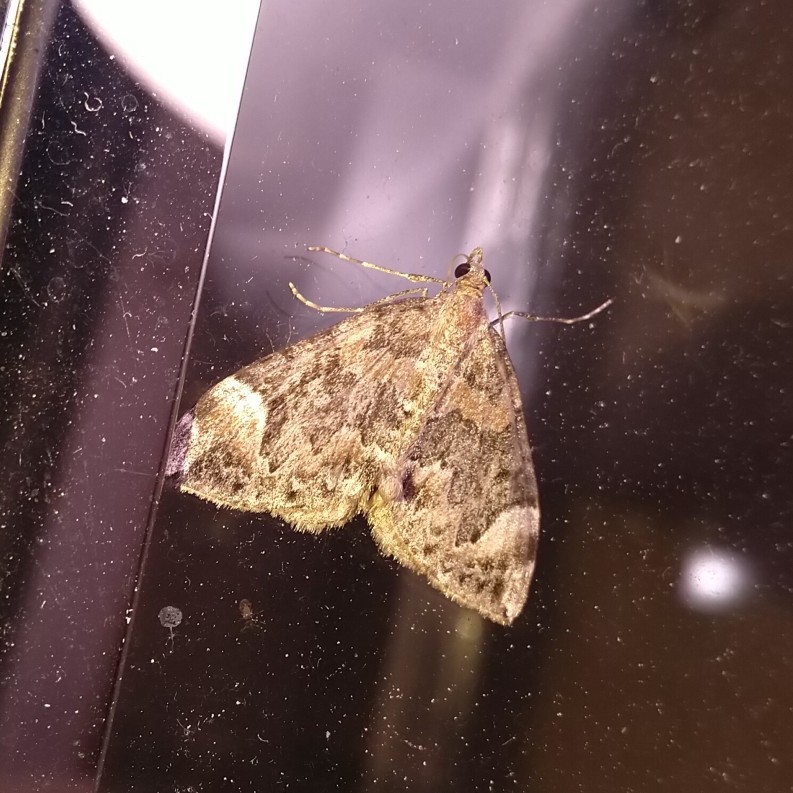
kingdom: Animalia
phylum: Arthropoda
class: Insecta
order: Lepidoptera
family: Geometridae
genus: Dysstroma
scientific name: Dysstroma citrata
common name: Dark marbled carpet
